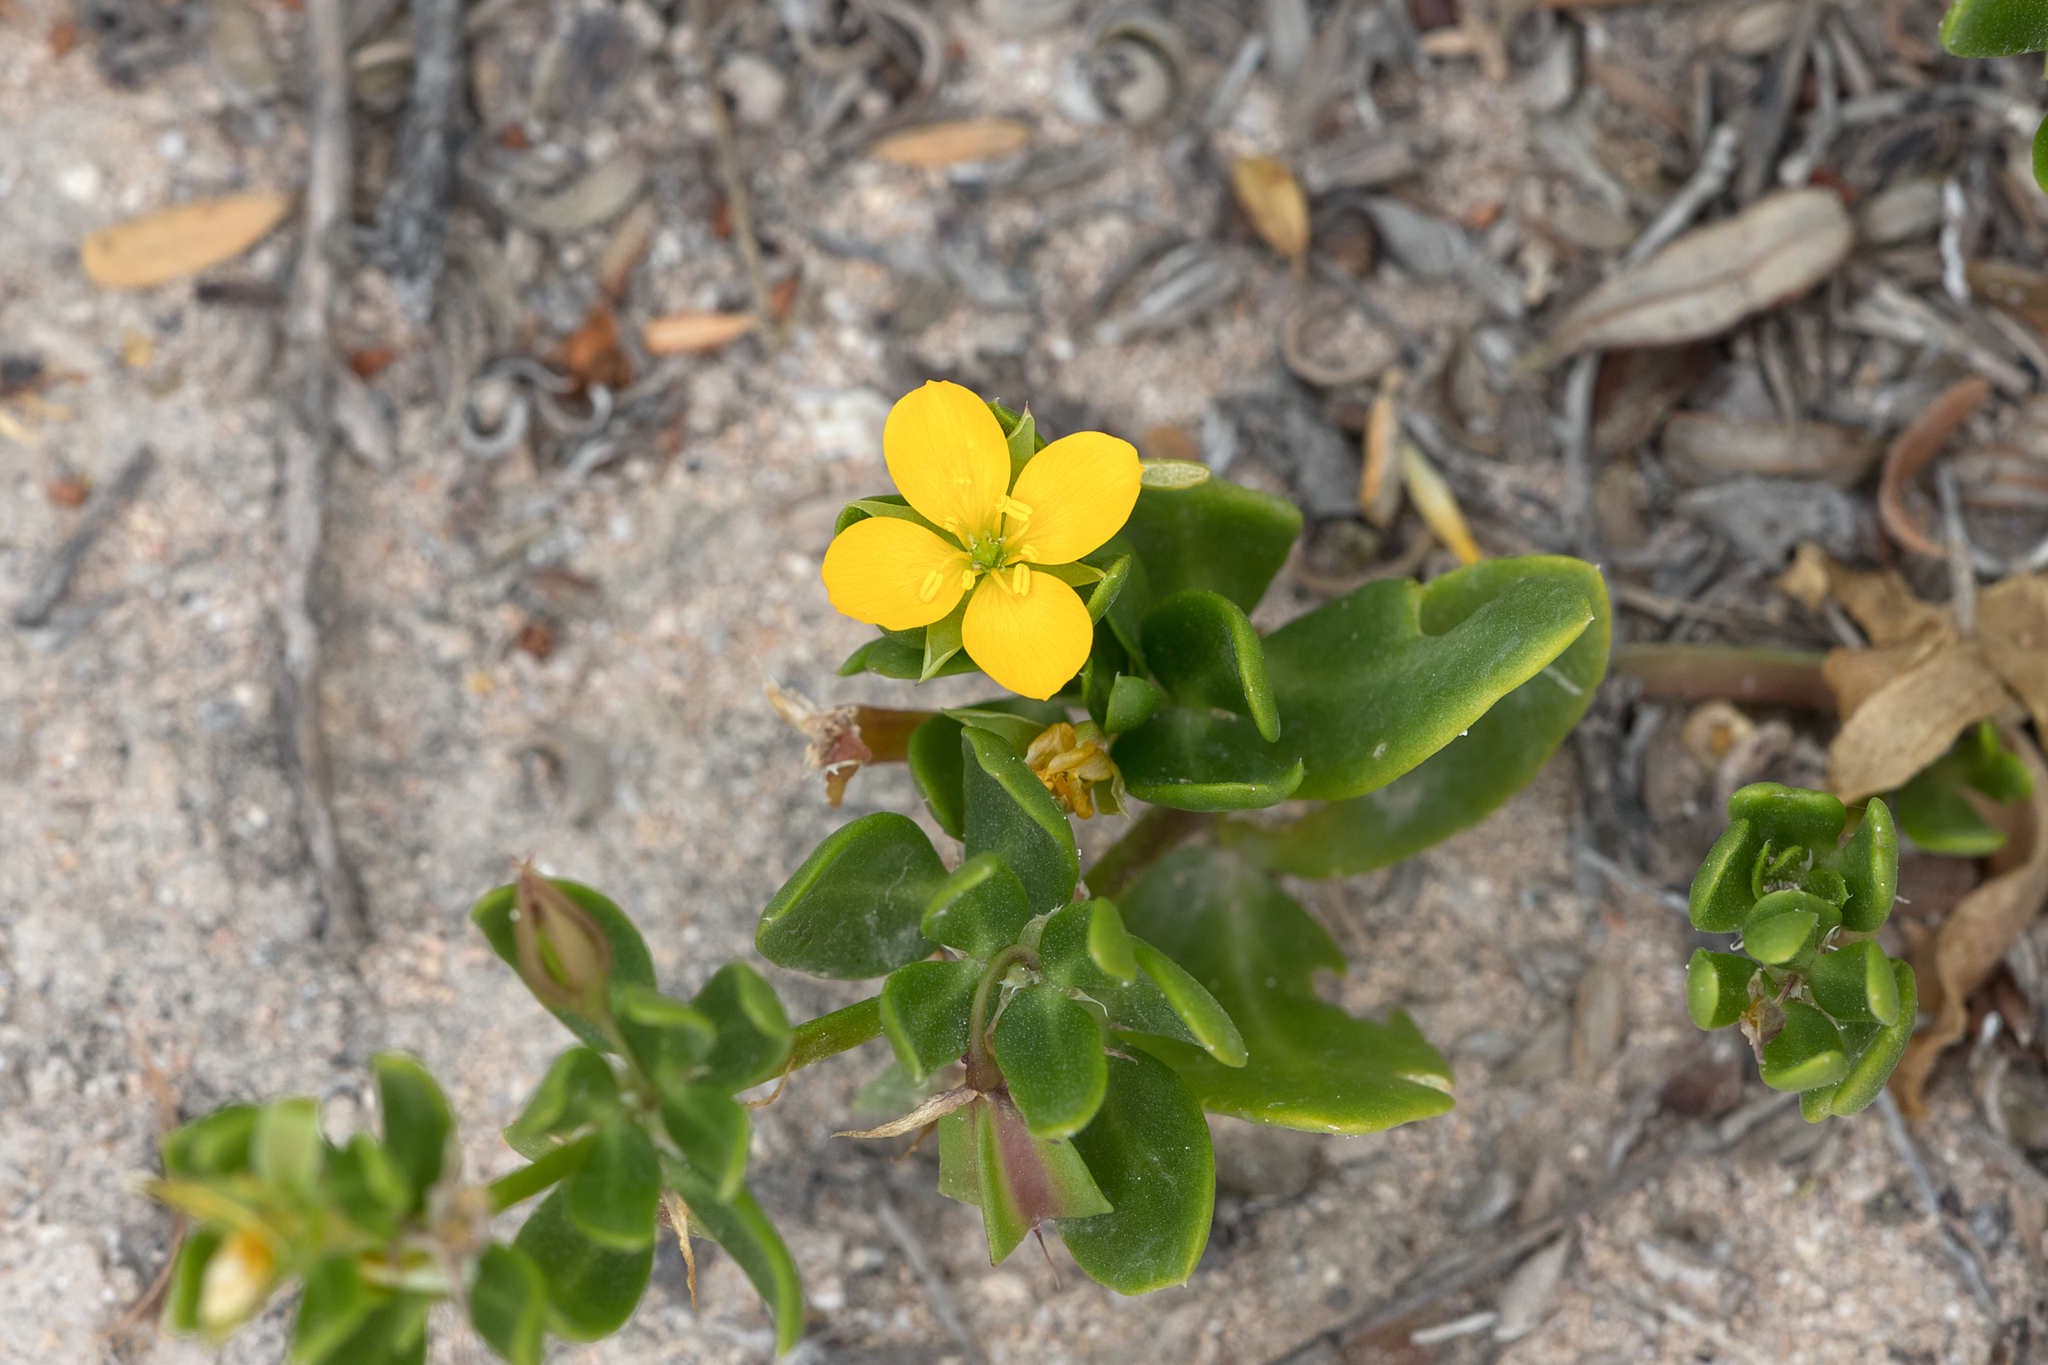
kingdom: Plantae
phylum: Tracheophyta
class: Magnoliopsida
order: Zygophyllales
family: Zygophyllaceae
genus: Roepera
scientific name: Roepera billardieri
